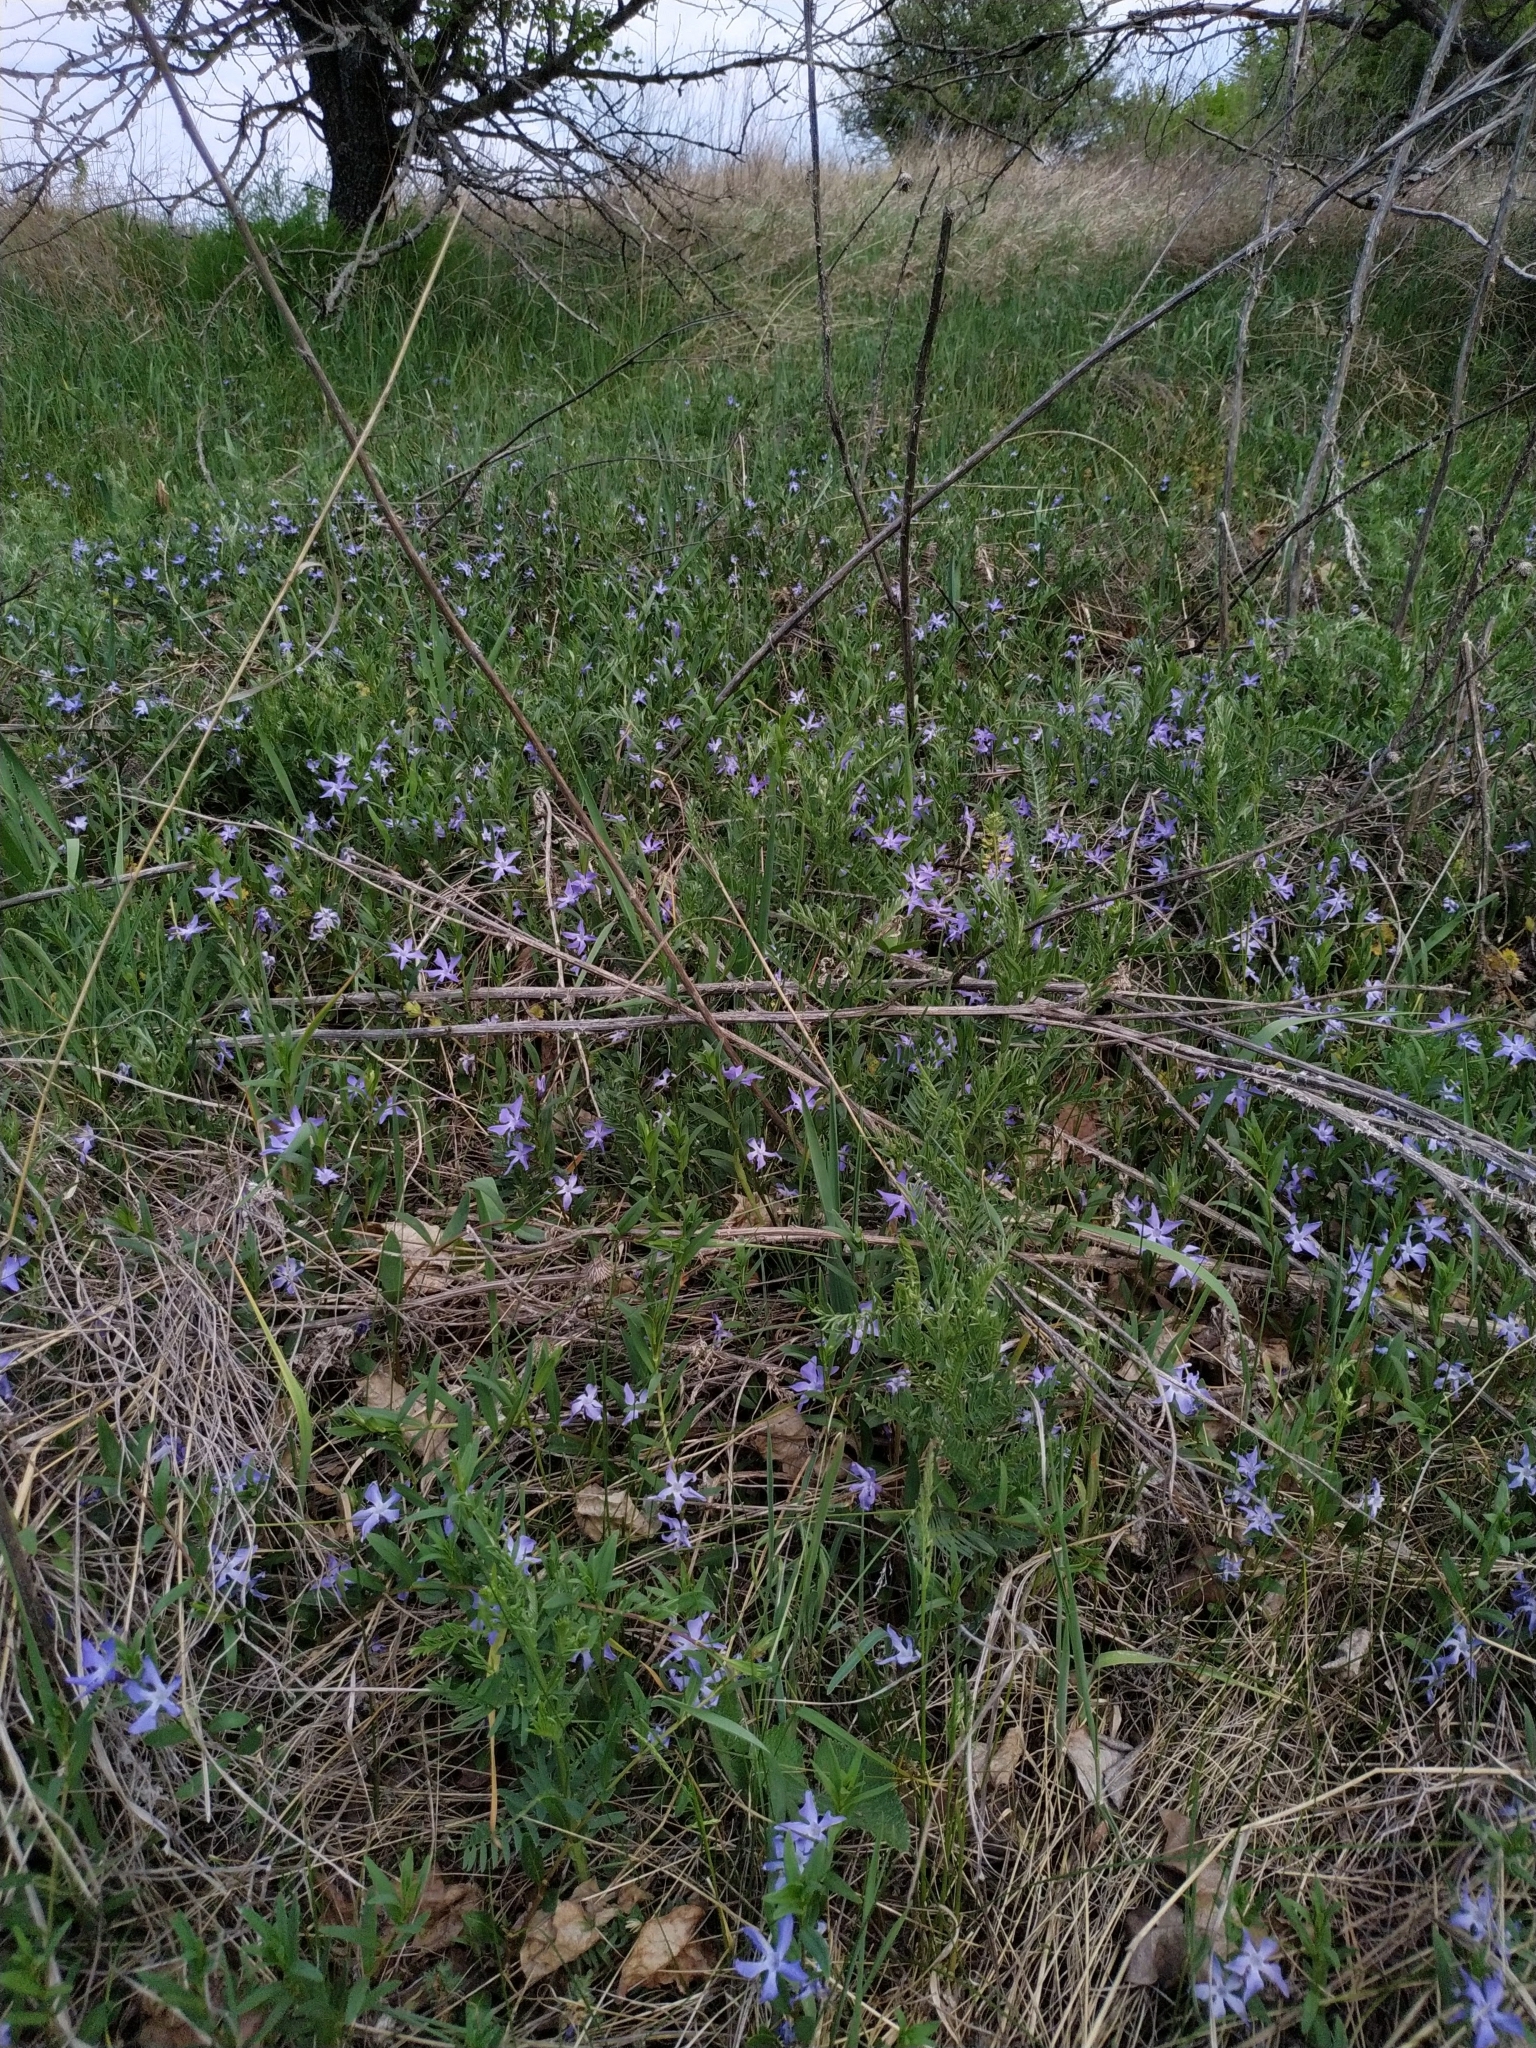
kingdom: Plantae
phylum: Tracheophyta
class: Magnoliopsida
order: Gentianales
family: Apocynaceae
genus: Vinca
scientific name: Vinca herbacea
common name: Herbaceous periwinkle
